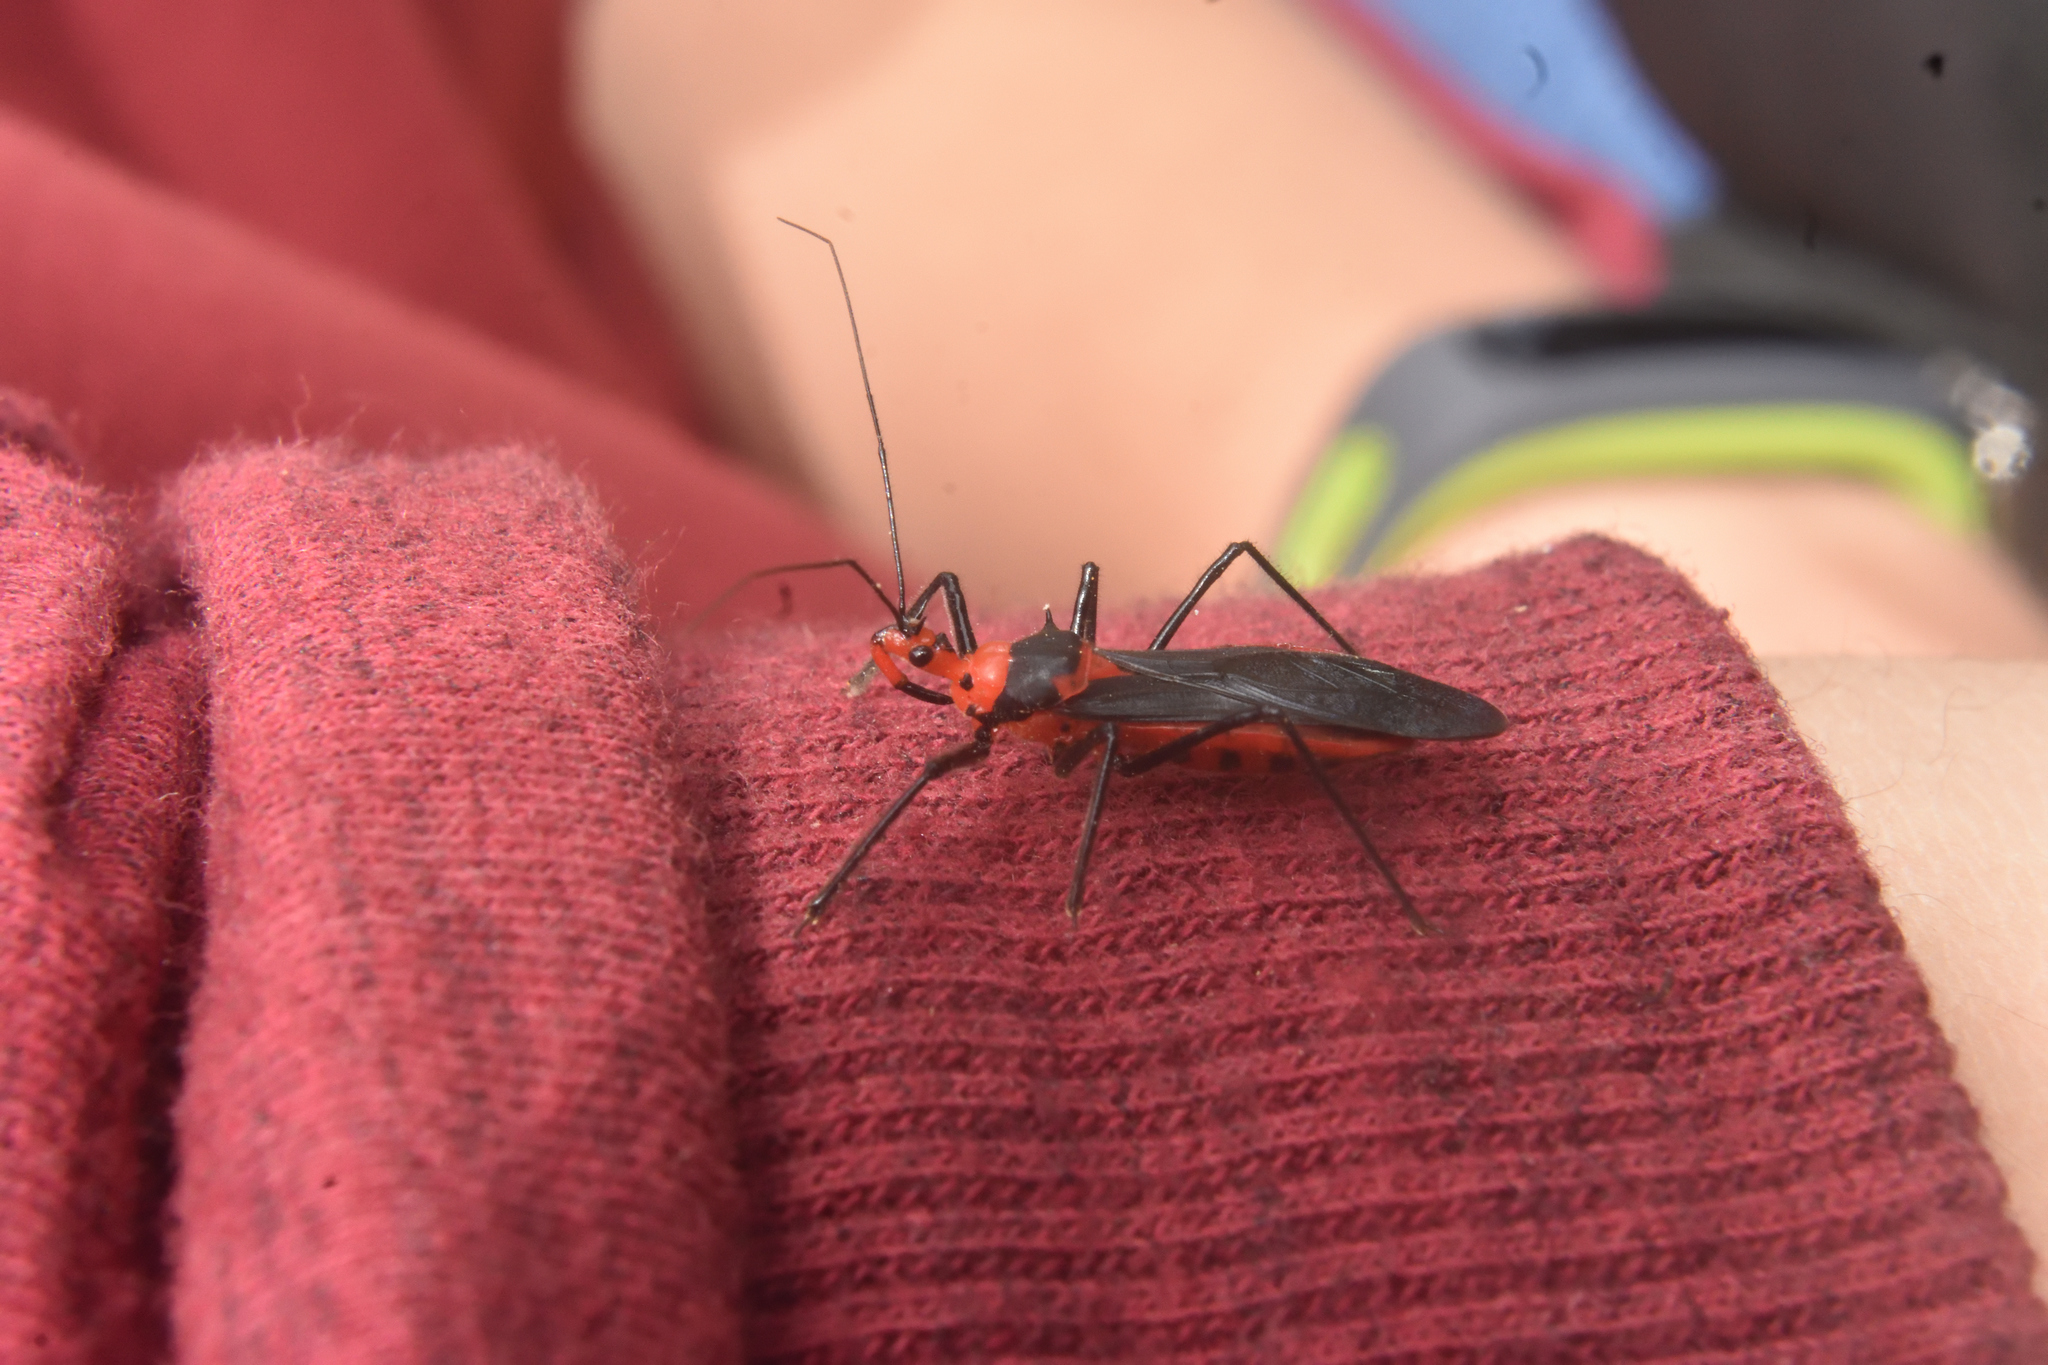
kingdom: Animalia
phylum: Arthropoda
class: Insecta
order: Hemiptera
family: Reduviidae
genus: Castolus
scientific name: Castolus rafaeli
